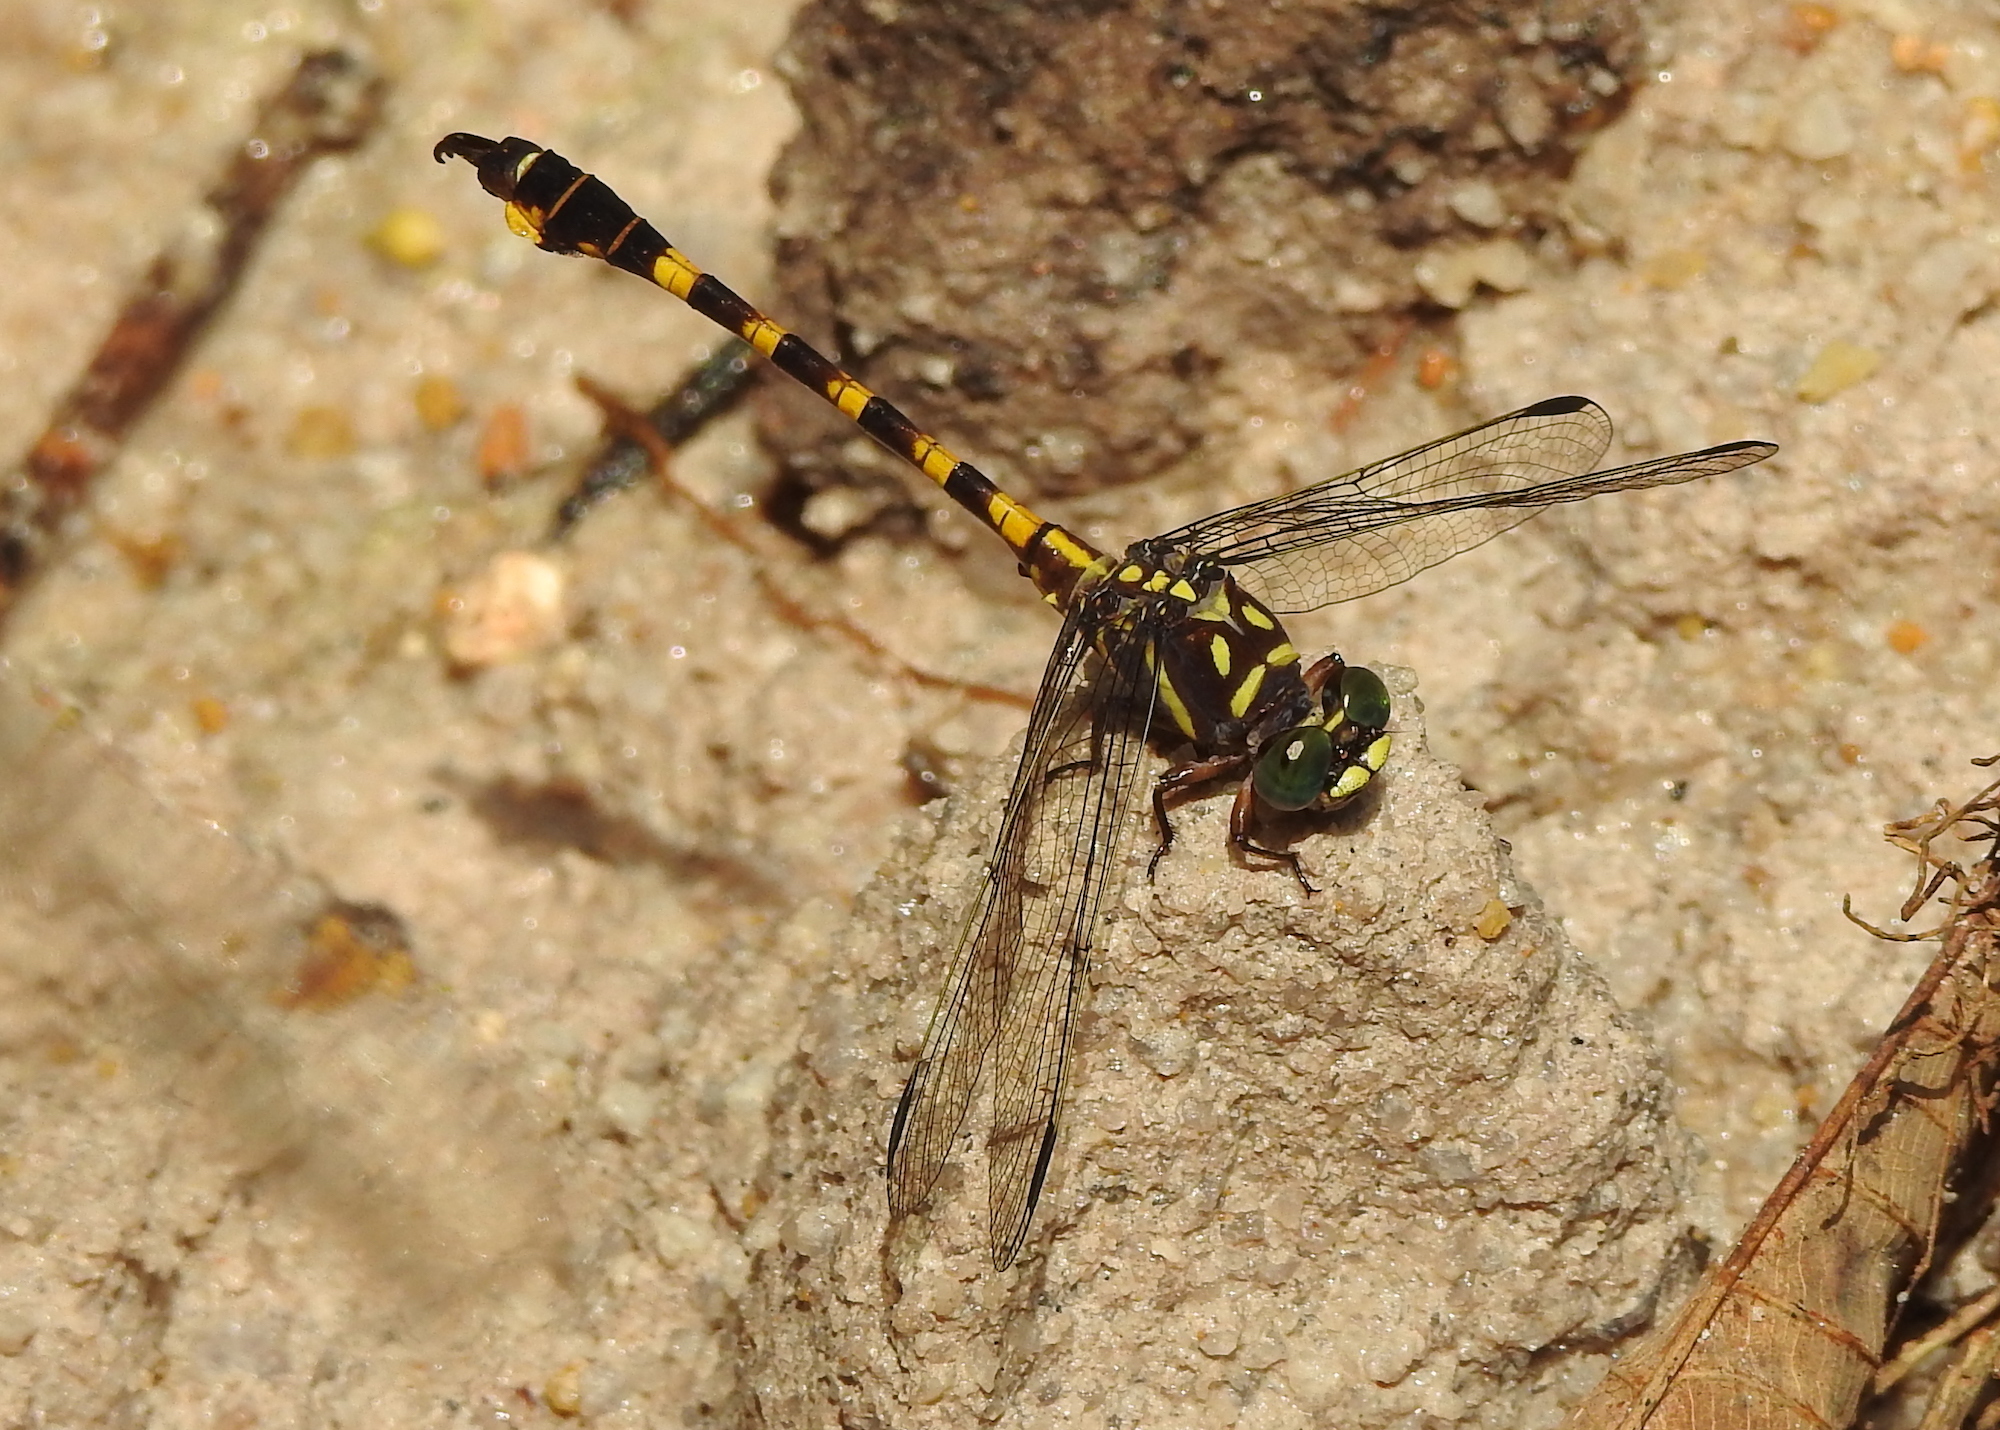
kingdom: Animalia
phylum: Arthropoda
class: Insecta
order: Odonata
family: Gomphidae
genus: Paragomphus
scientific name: Paragomphus capricornis
